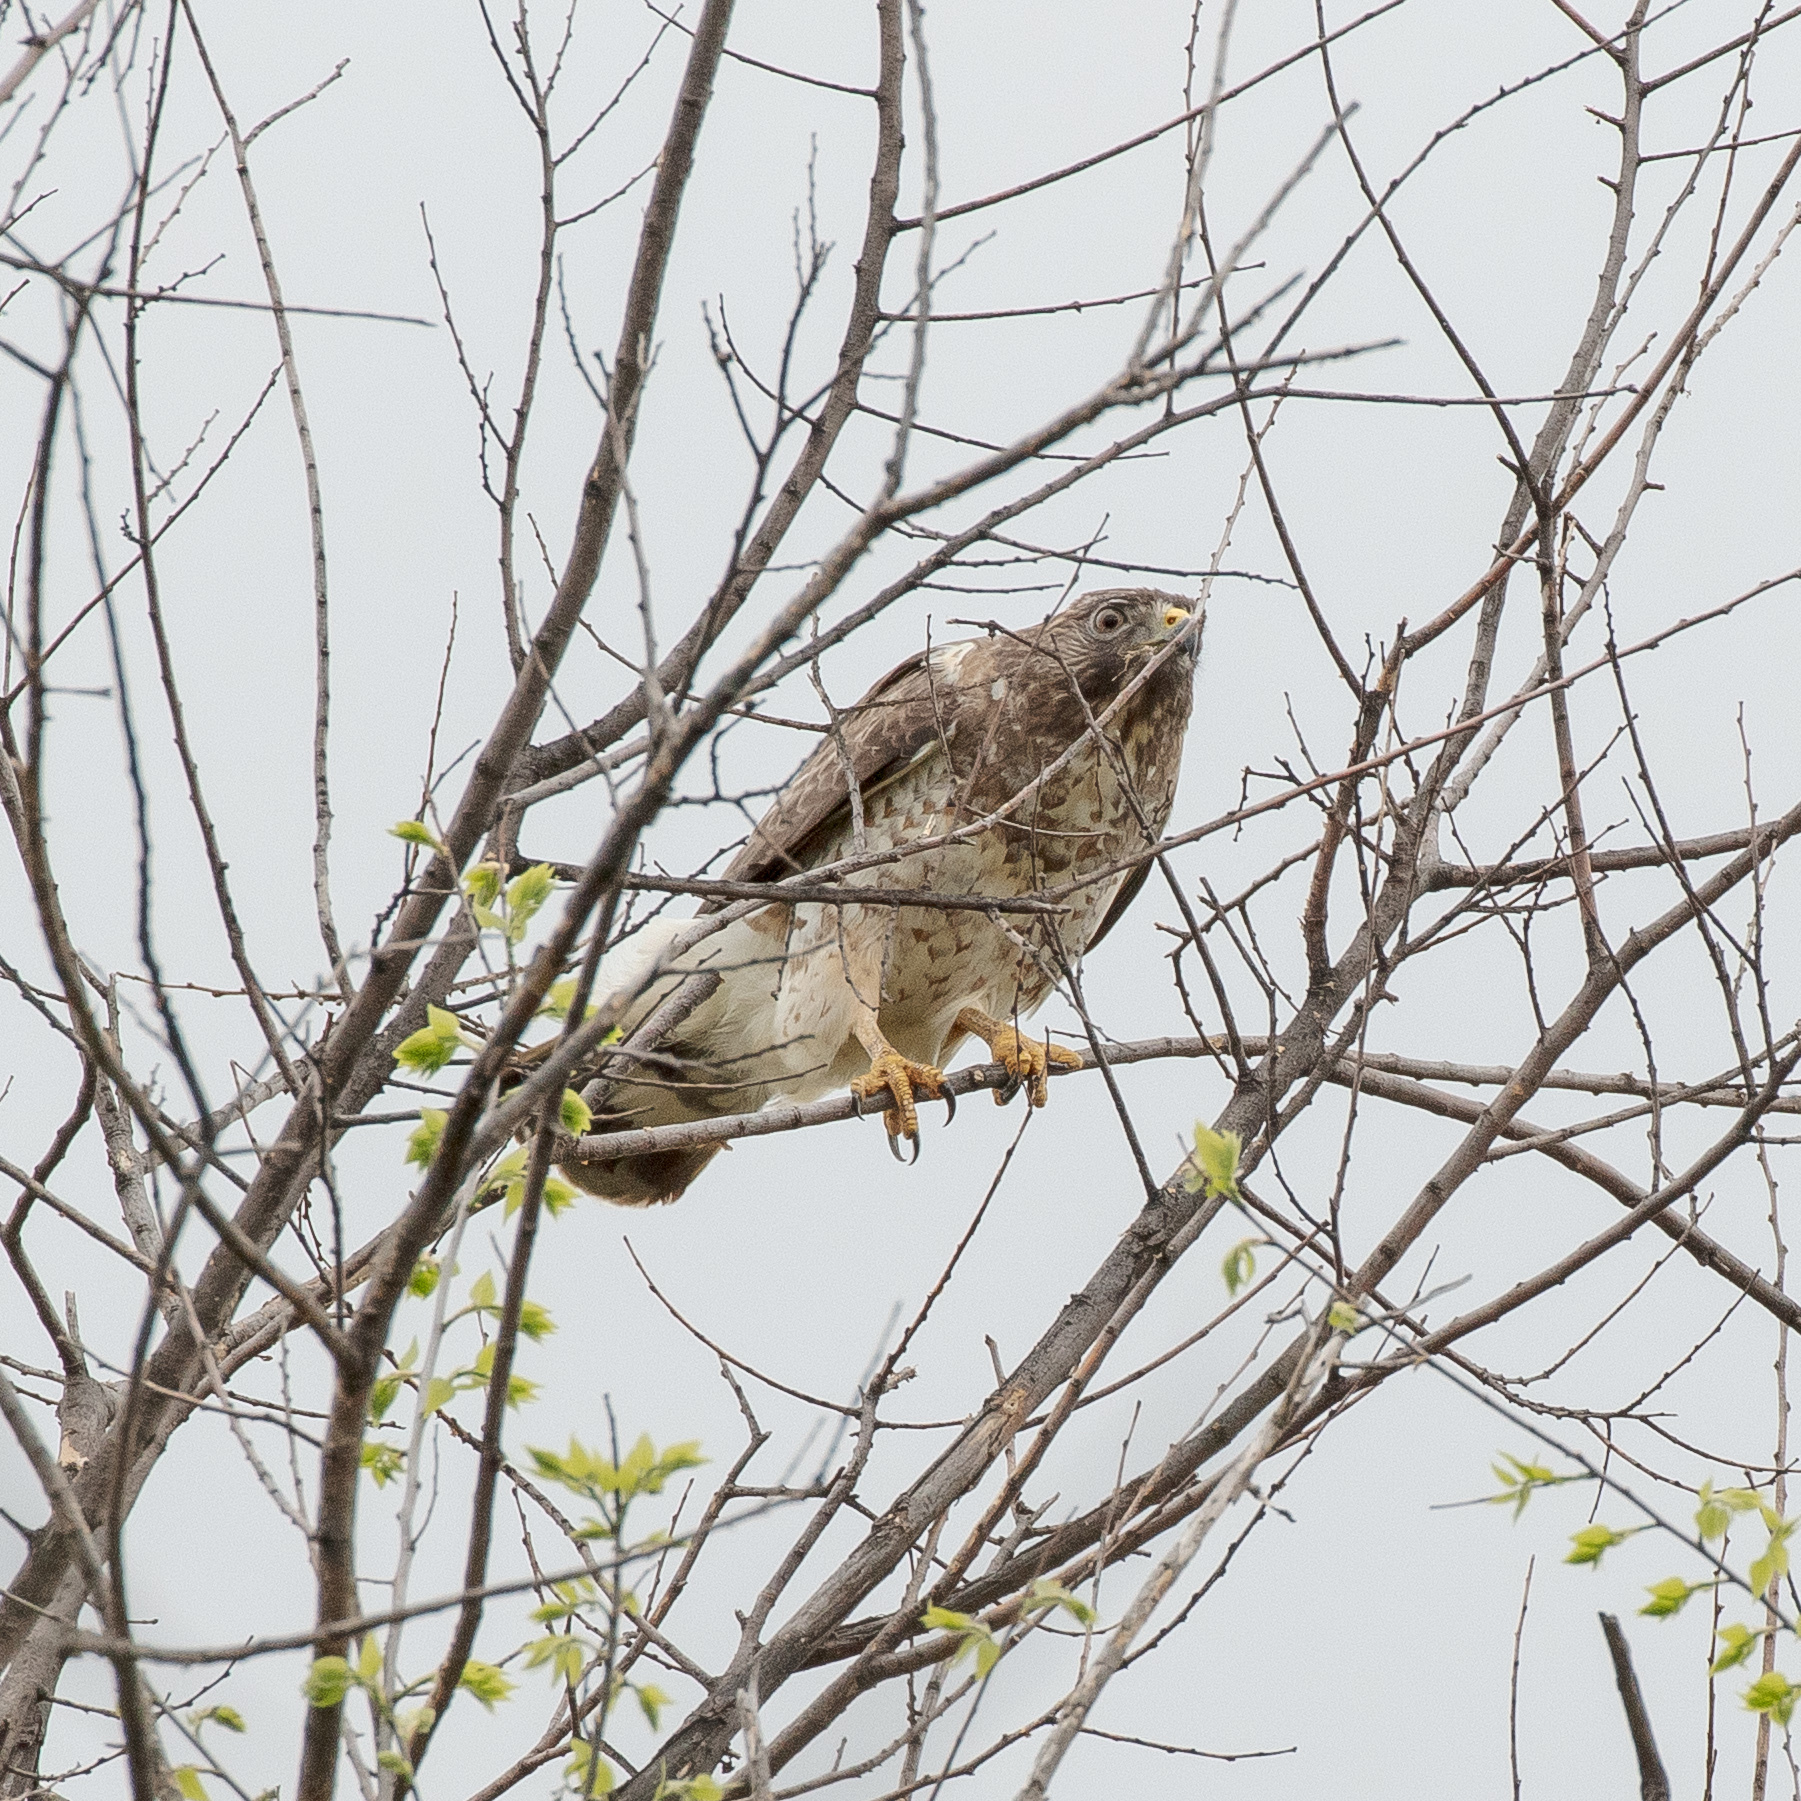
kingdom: Animalia
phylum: Chordata
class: Aves
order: Accipitriformes
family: Accipitridae
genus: Buteo
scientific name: Buteo platypterus
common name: Broad-winged hawk
